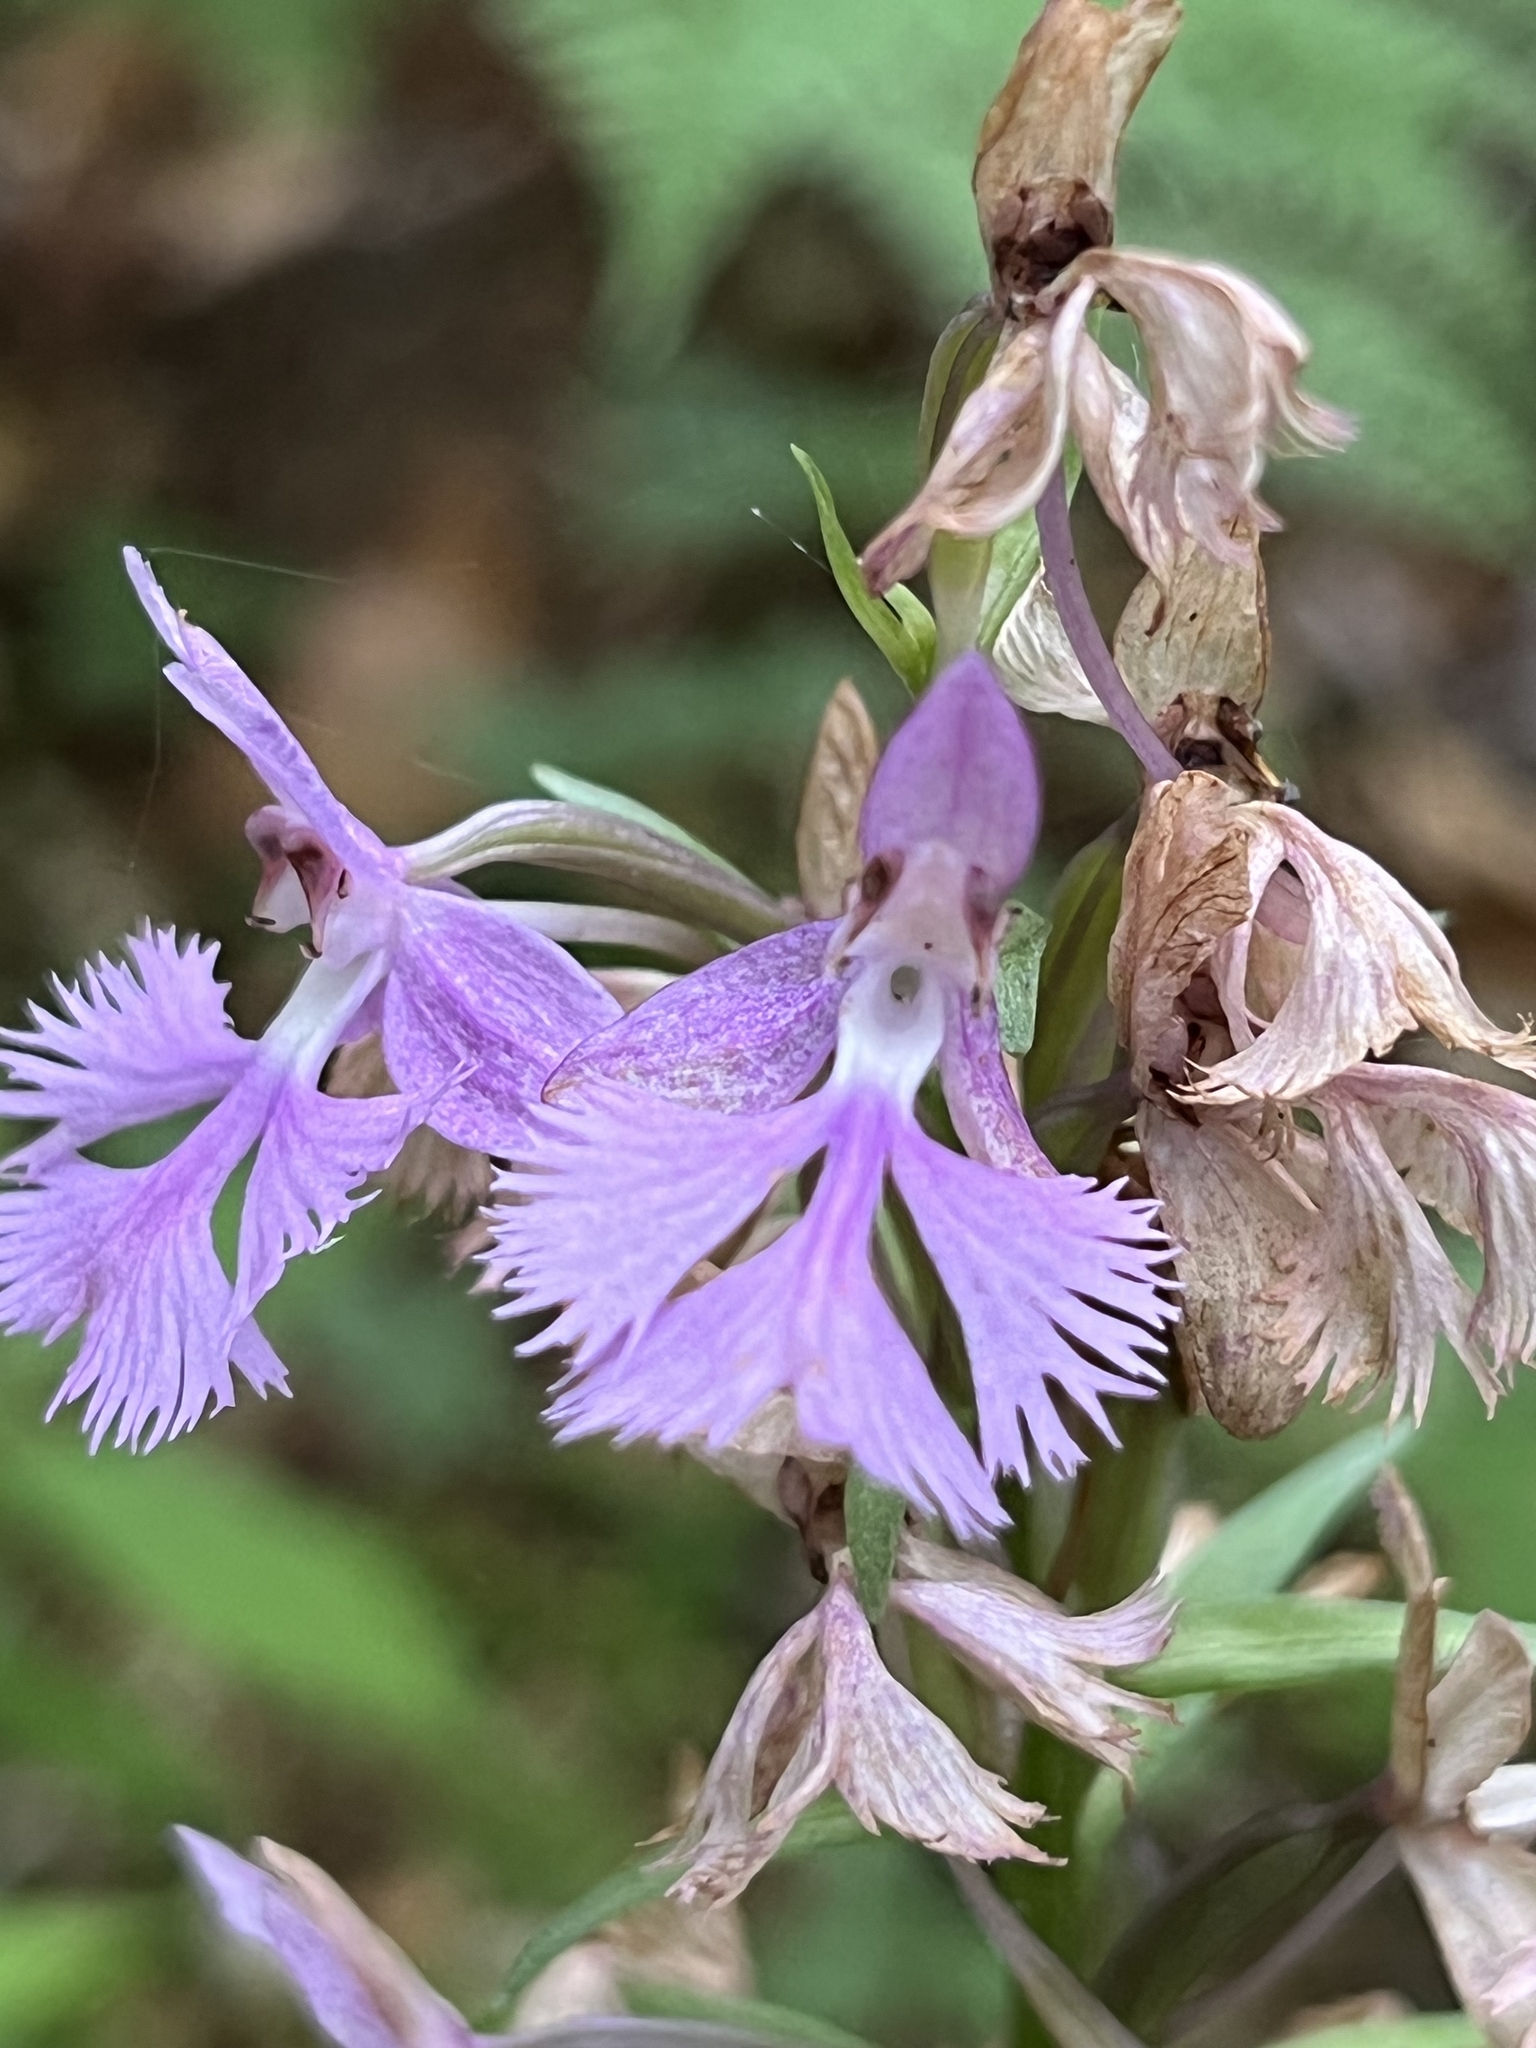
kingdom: Plantae
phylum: Tracheophyta
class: Liliopsida
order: Asparagales
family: Orchidaceae
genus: Platanthera
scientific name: Platanthera grandiflora
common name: Greater purple fringed orchid
